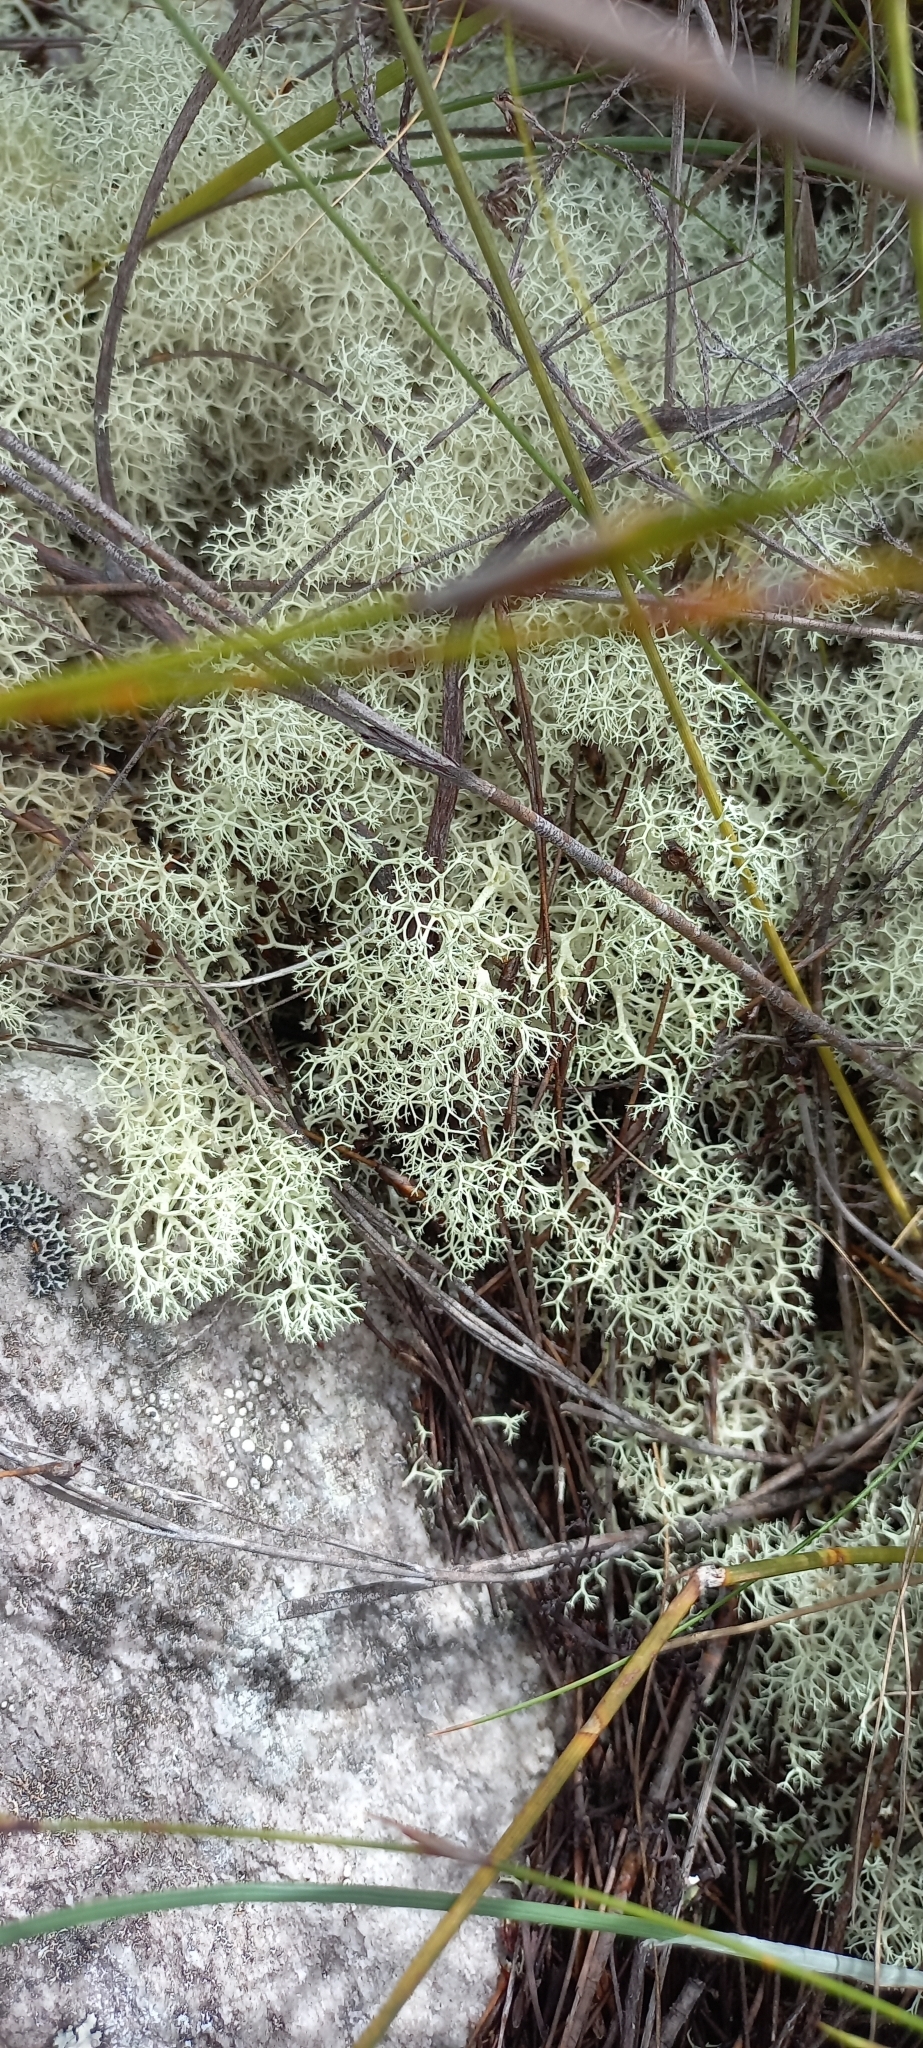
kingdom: Fungi
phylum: Ascomycota
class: Lecanoromycetes
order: Lecanorales
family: Cladoniaceae
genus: Cladonia
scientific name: Cladonia confusa
